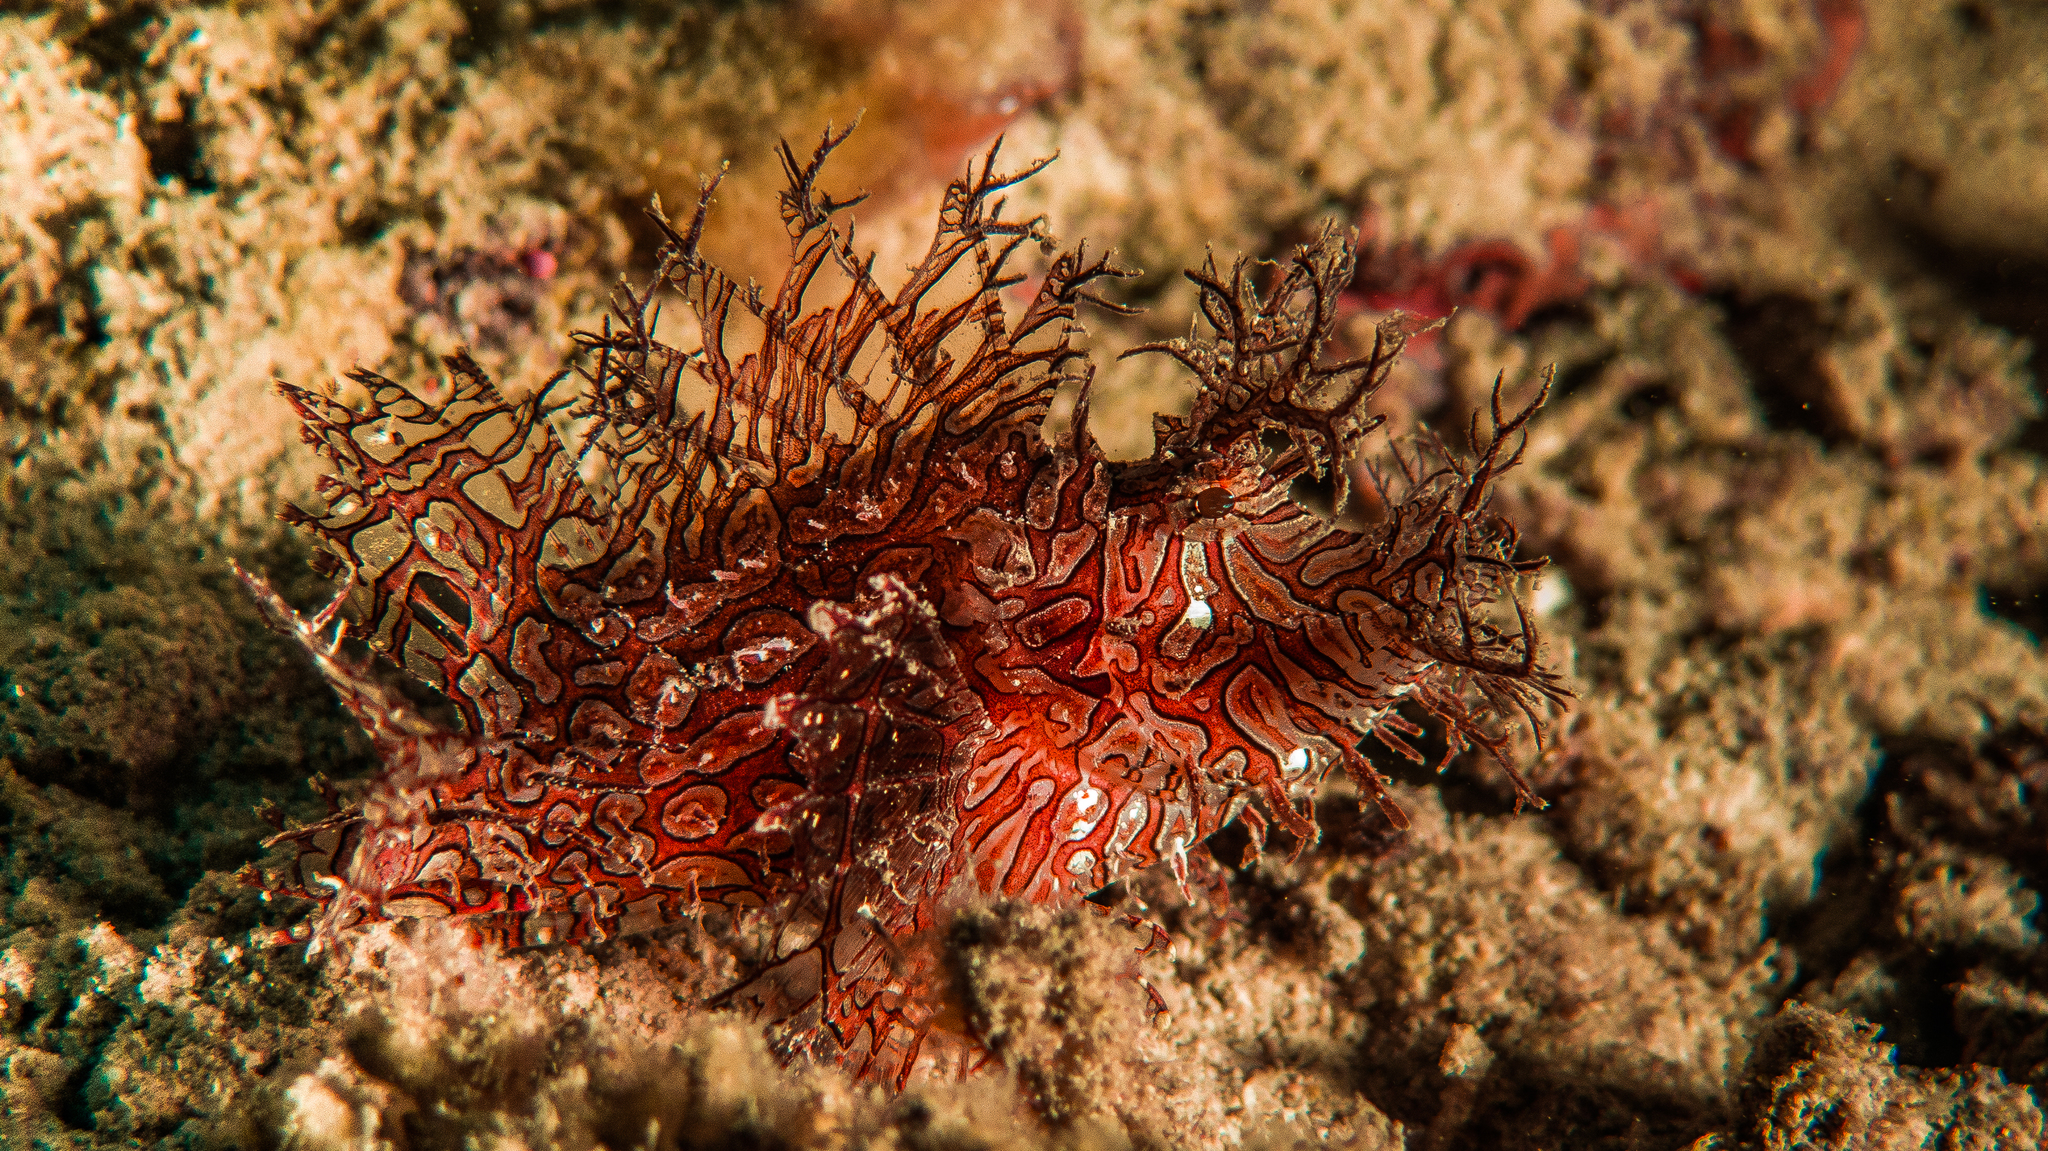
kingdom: Animalia
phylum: Chordata
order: Scorpaeniformes
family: Scorpaenidae
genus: Rhinopias
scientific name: Rhinopias aphanes
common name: Merlet's scorpionfish
